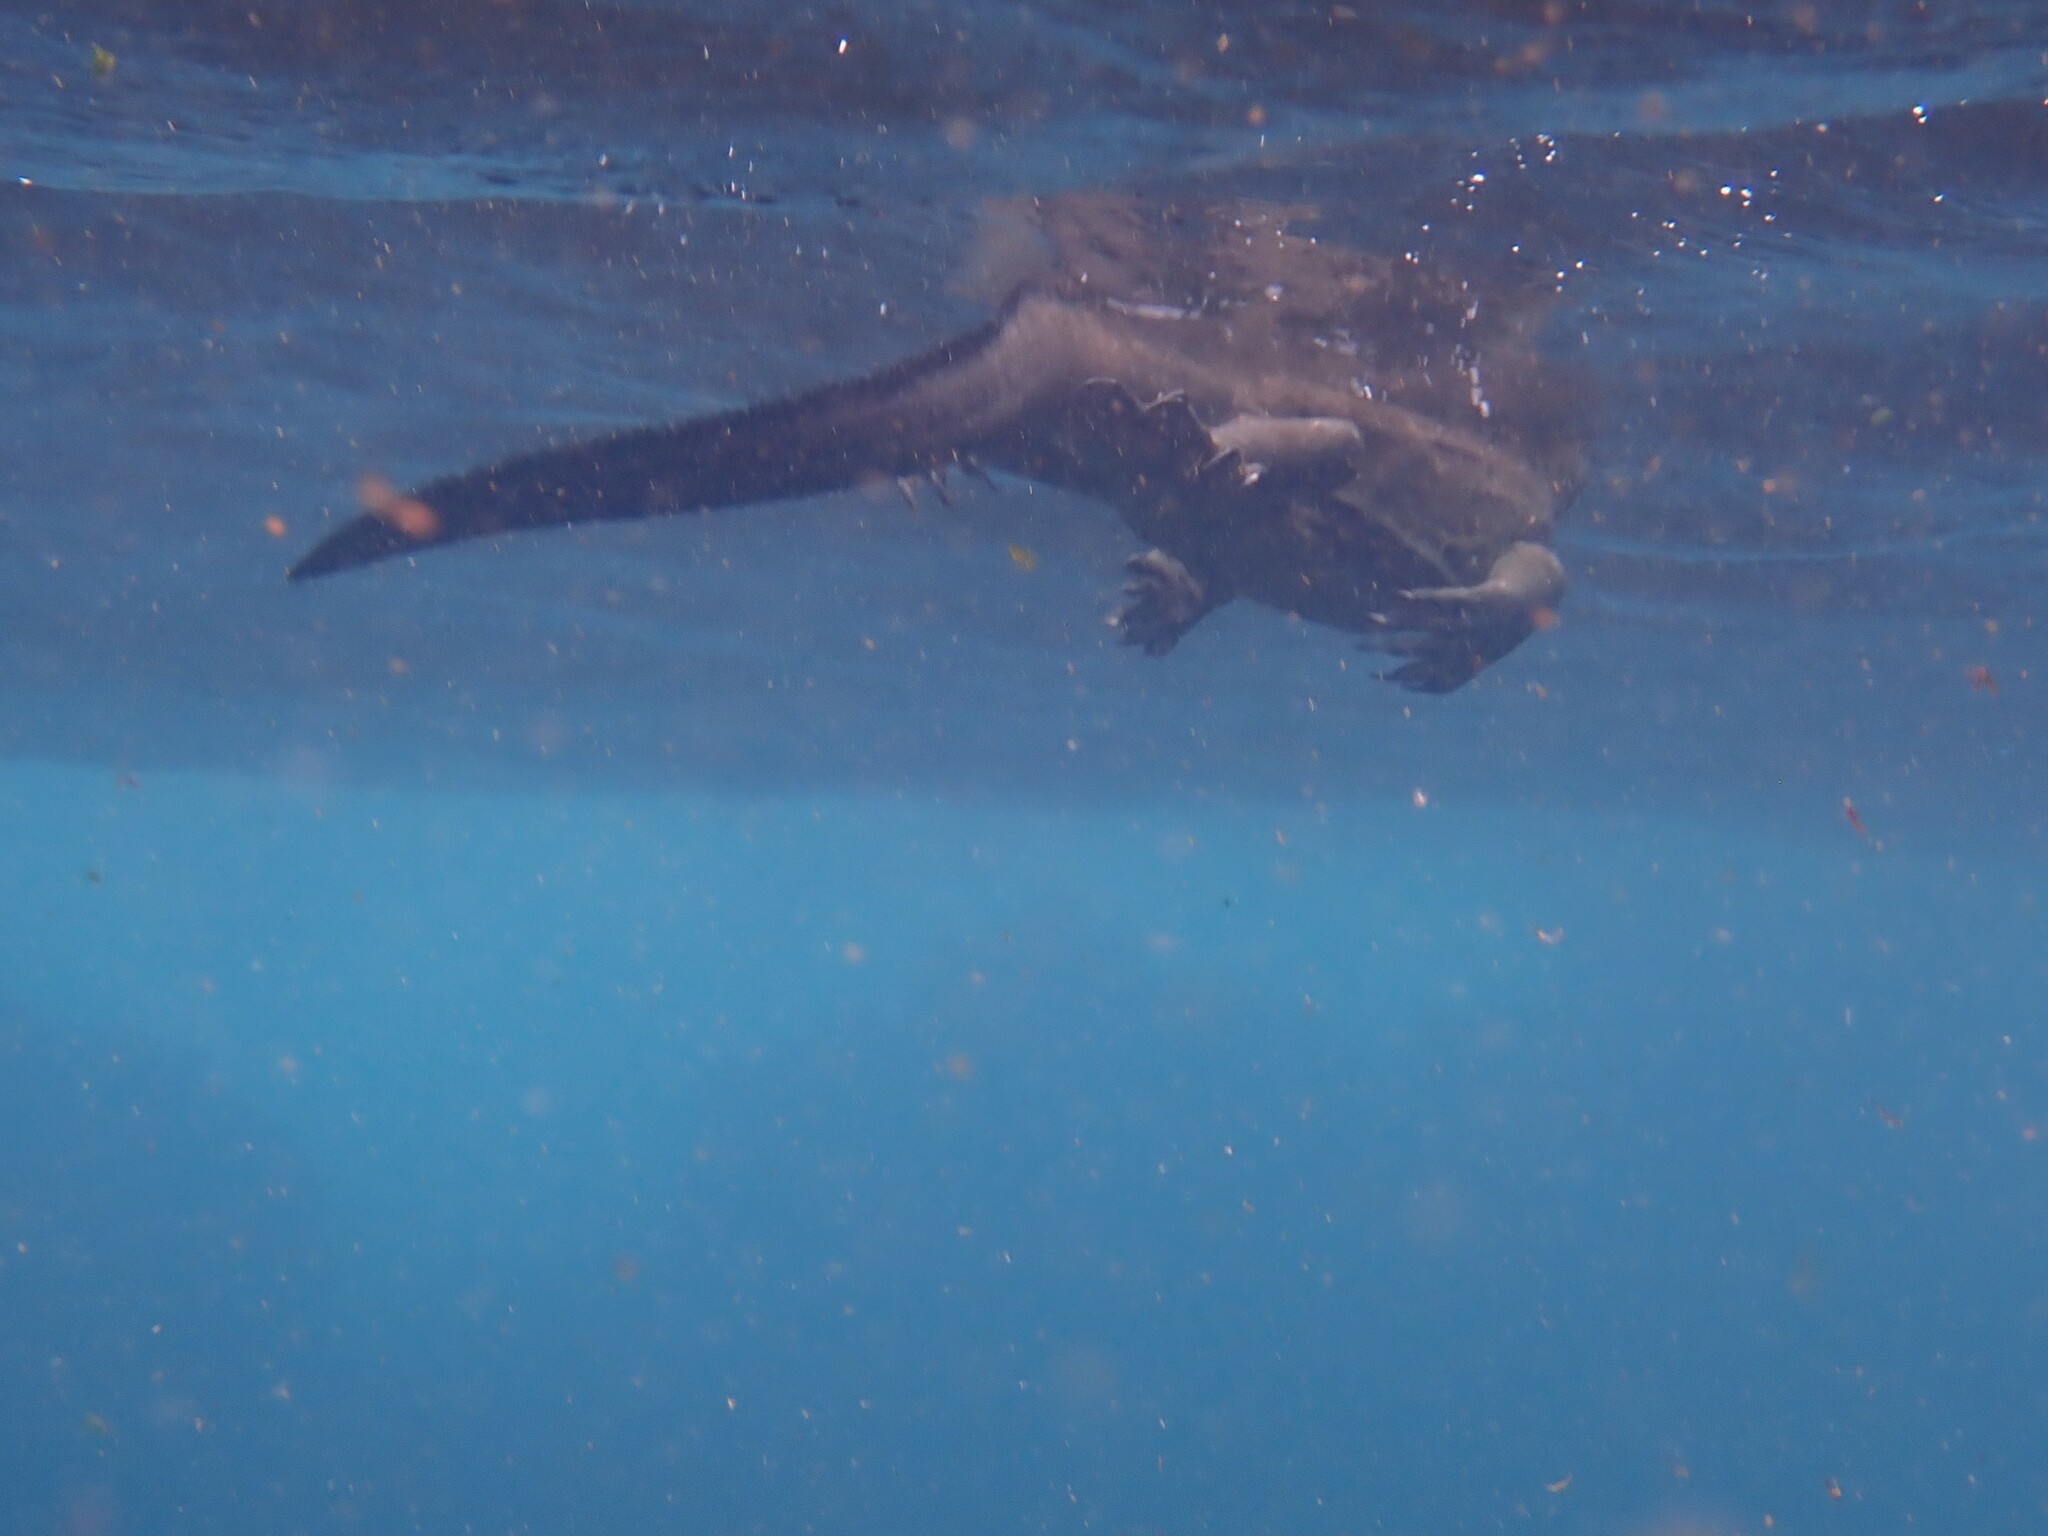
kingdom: Animalia
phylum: Chordata
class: Squamata
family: Iguanidae
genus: Amblyrhynchus
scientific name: Amblyrhynchus cristatus
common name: Marine iguana
